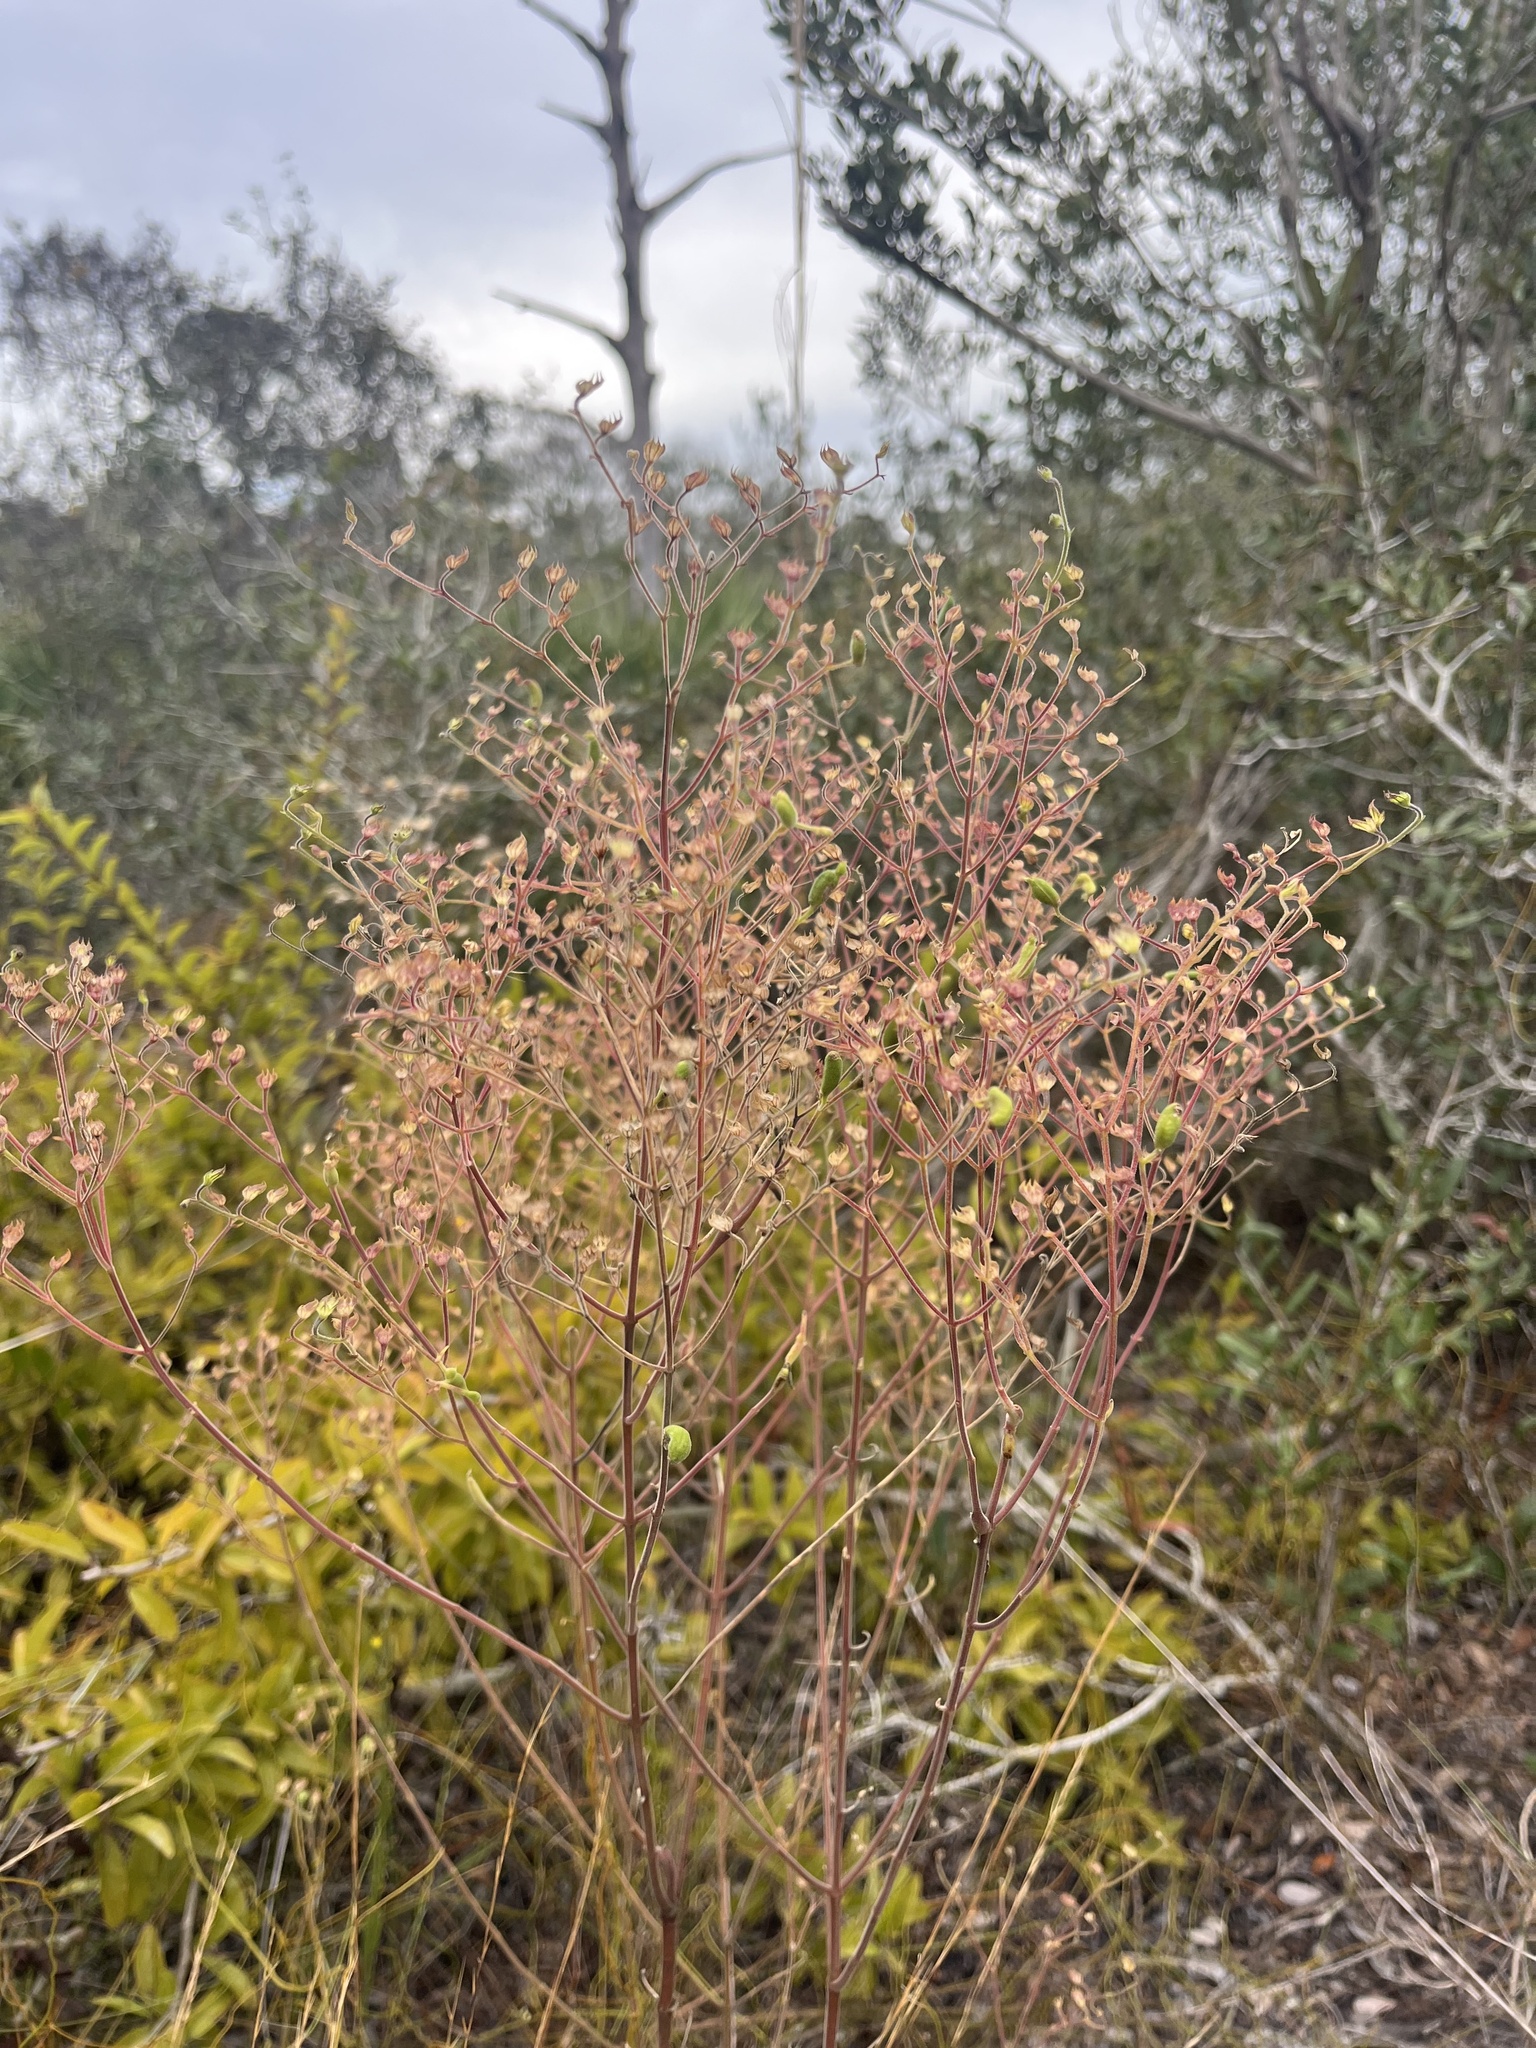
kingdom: Plantae
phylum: Tracheophyta
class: Magnoliopsida
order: Lamiales
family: Lamiaceae
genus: Trichostema
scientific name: Trichostema gracile
